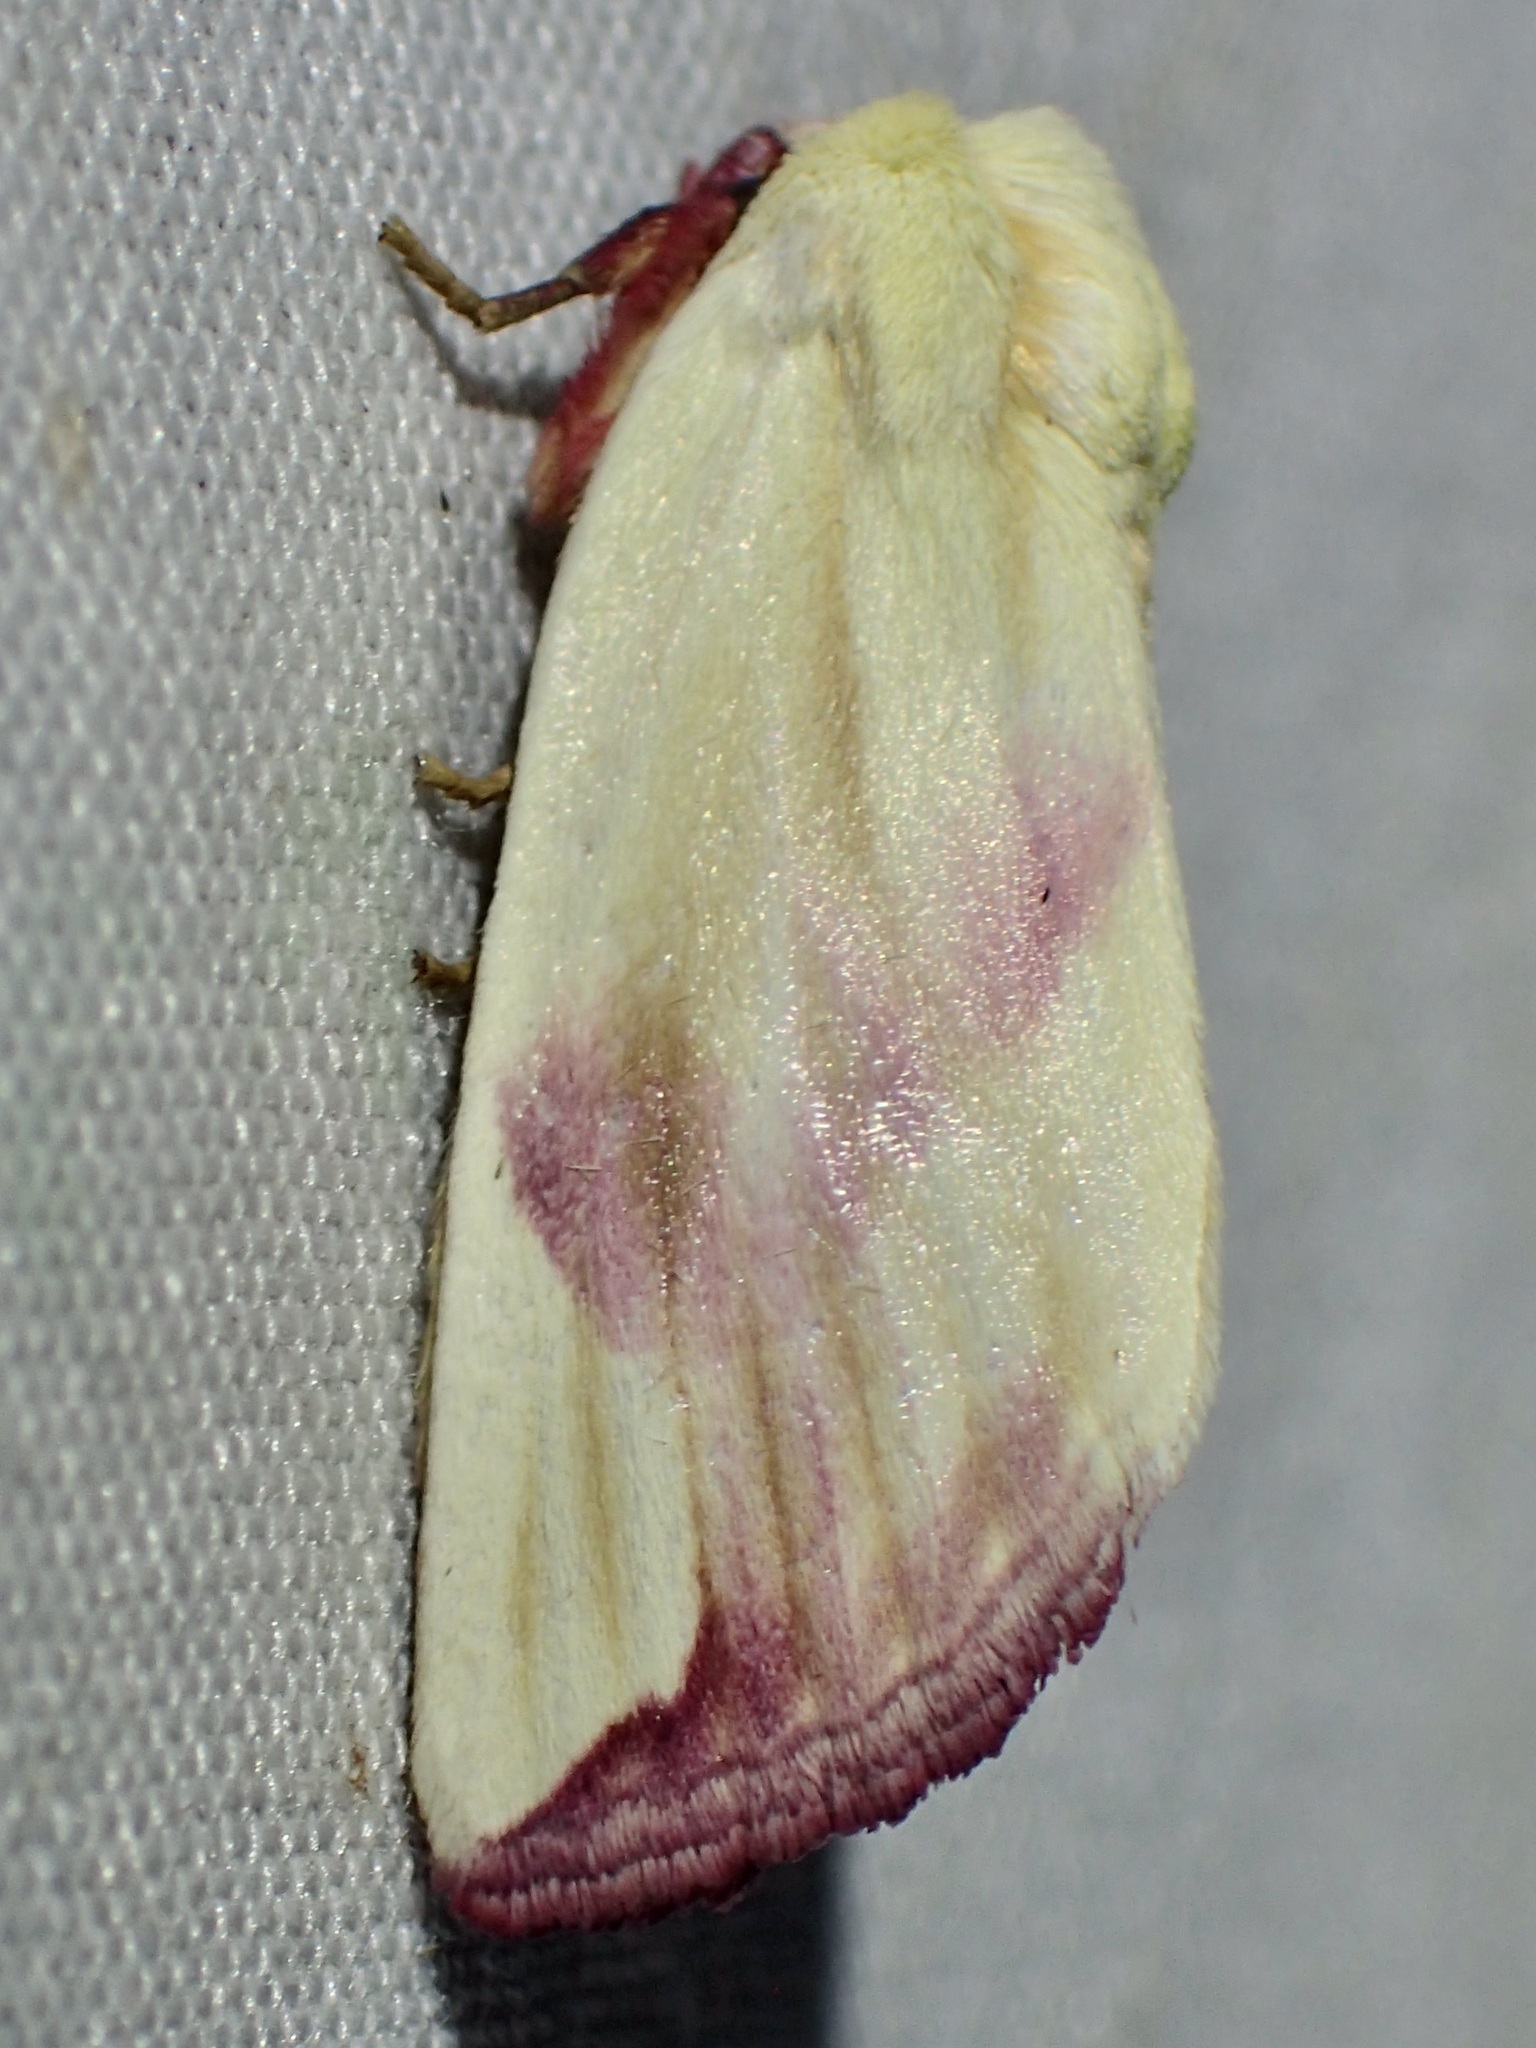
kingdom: Animalia
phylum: Arthropoda
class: Insecta
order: Lepidoptera
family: Noctuidae
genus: Thurberiphaga
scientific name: Thurberiphaga diffusa
